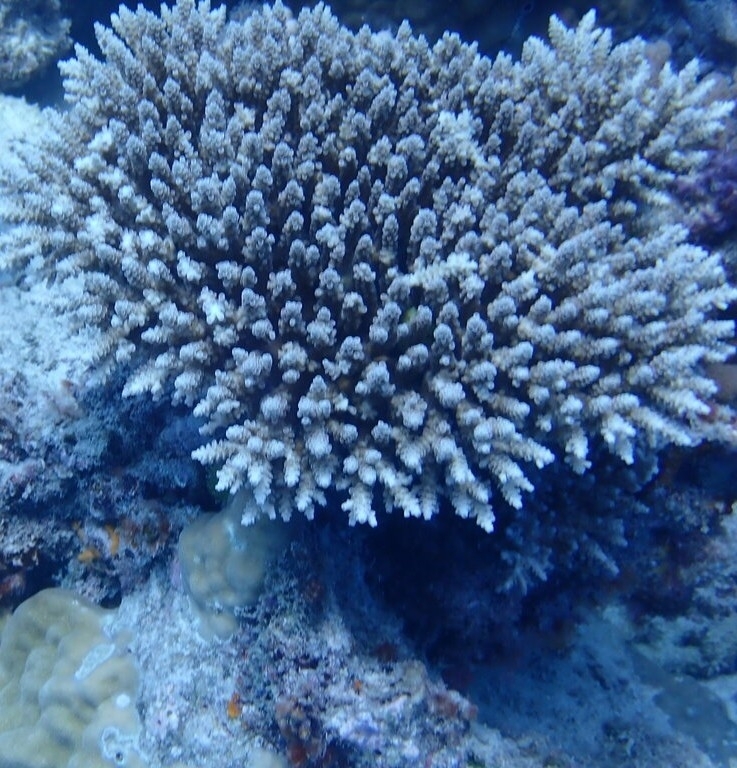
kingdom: Animalia
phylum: Cnidaria
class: Anthozoa
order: Scleractinia
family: Acroporidae
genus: Acropora
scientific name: Acropora tenuis
